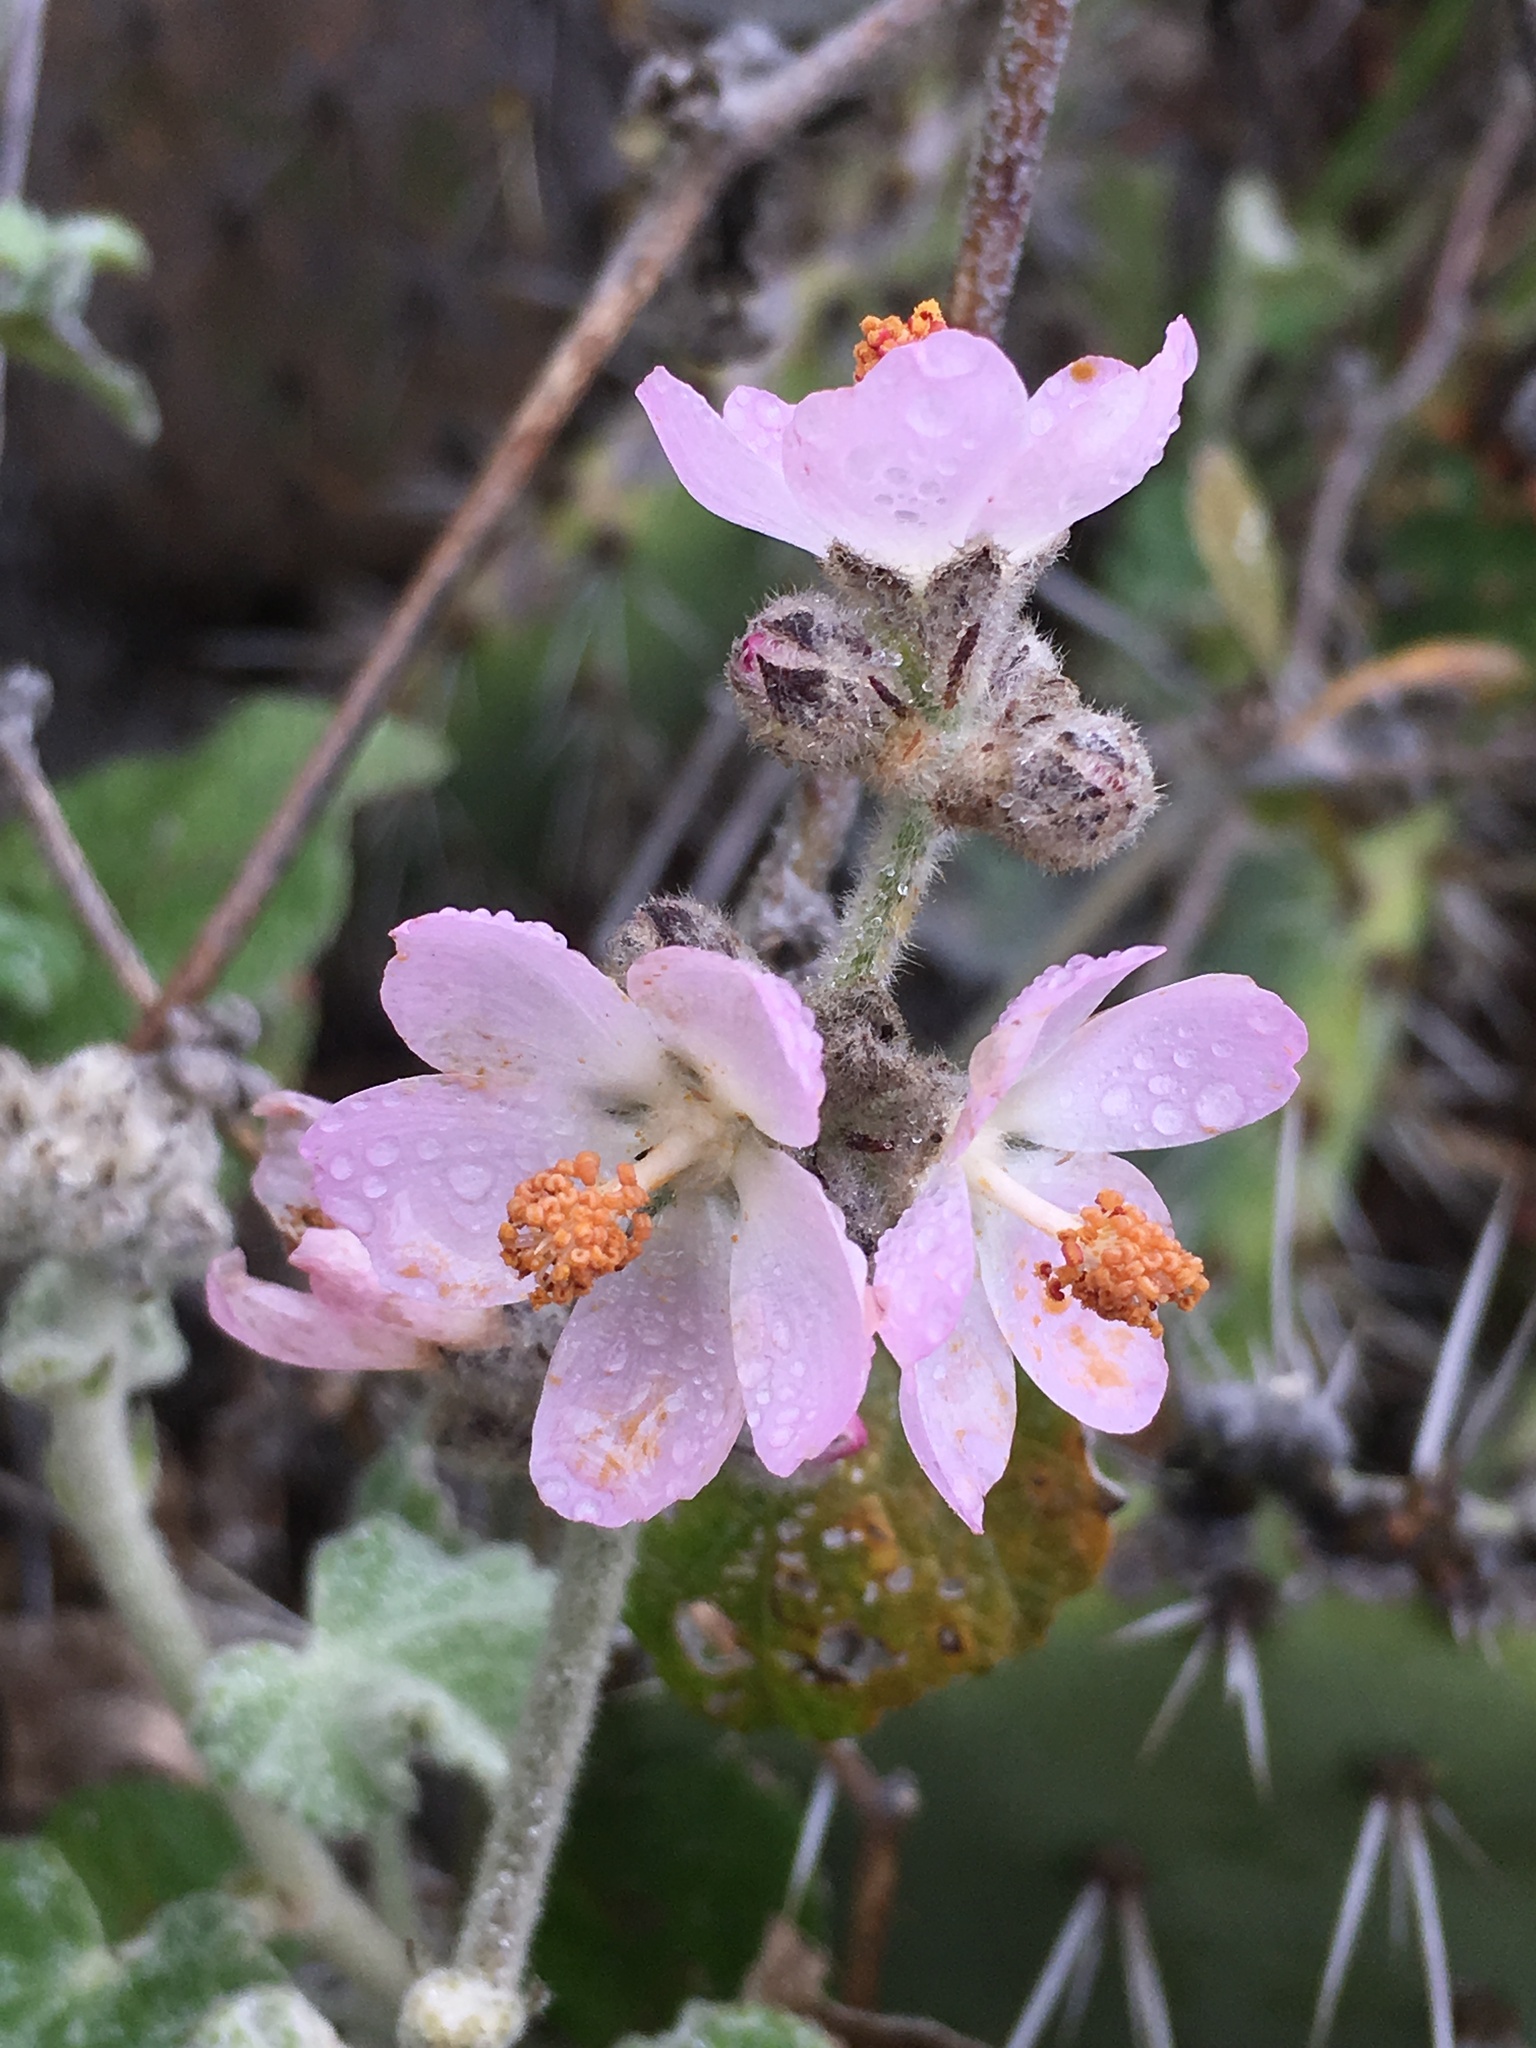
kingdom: Plantae
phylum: Tracheophyta
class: Magnoliopsida
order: Malvales
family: Malvaceae
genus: Malacothamnus
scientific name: Malacothamnus clementinus
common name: San clemente island bush-mallow
